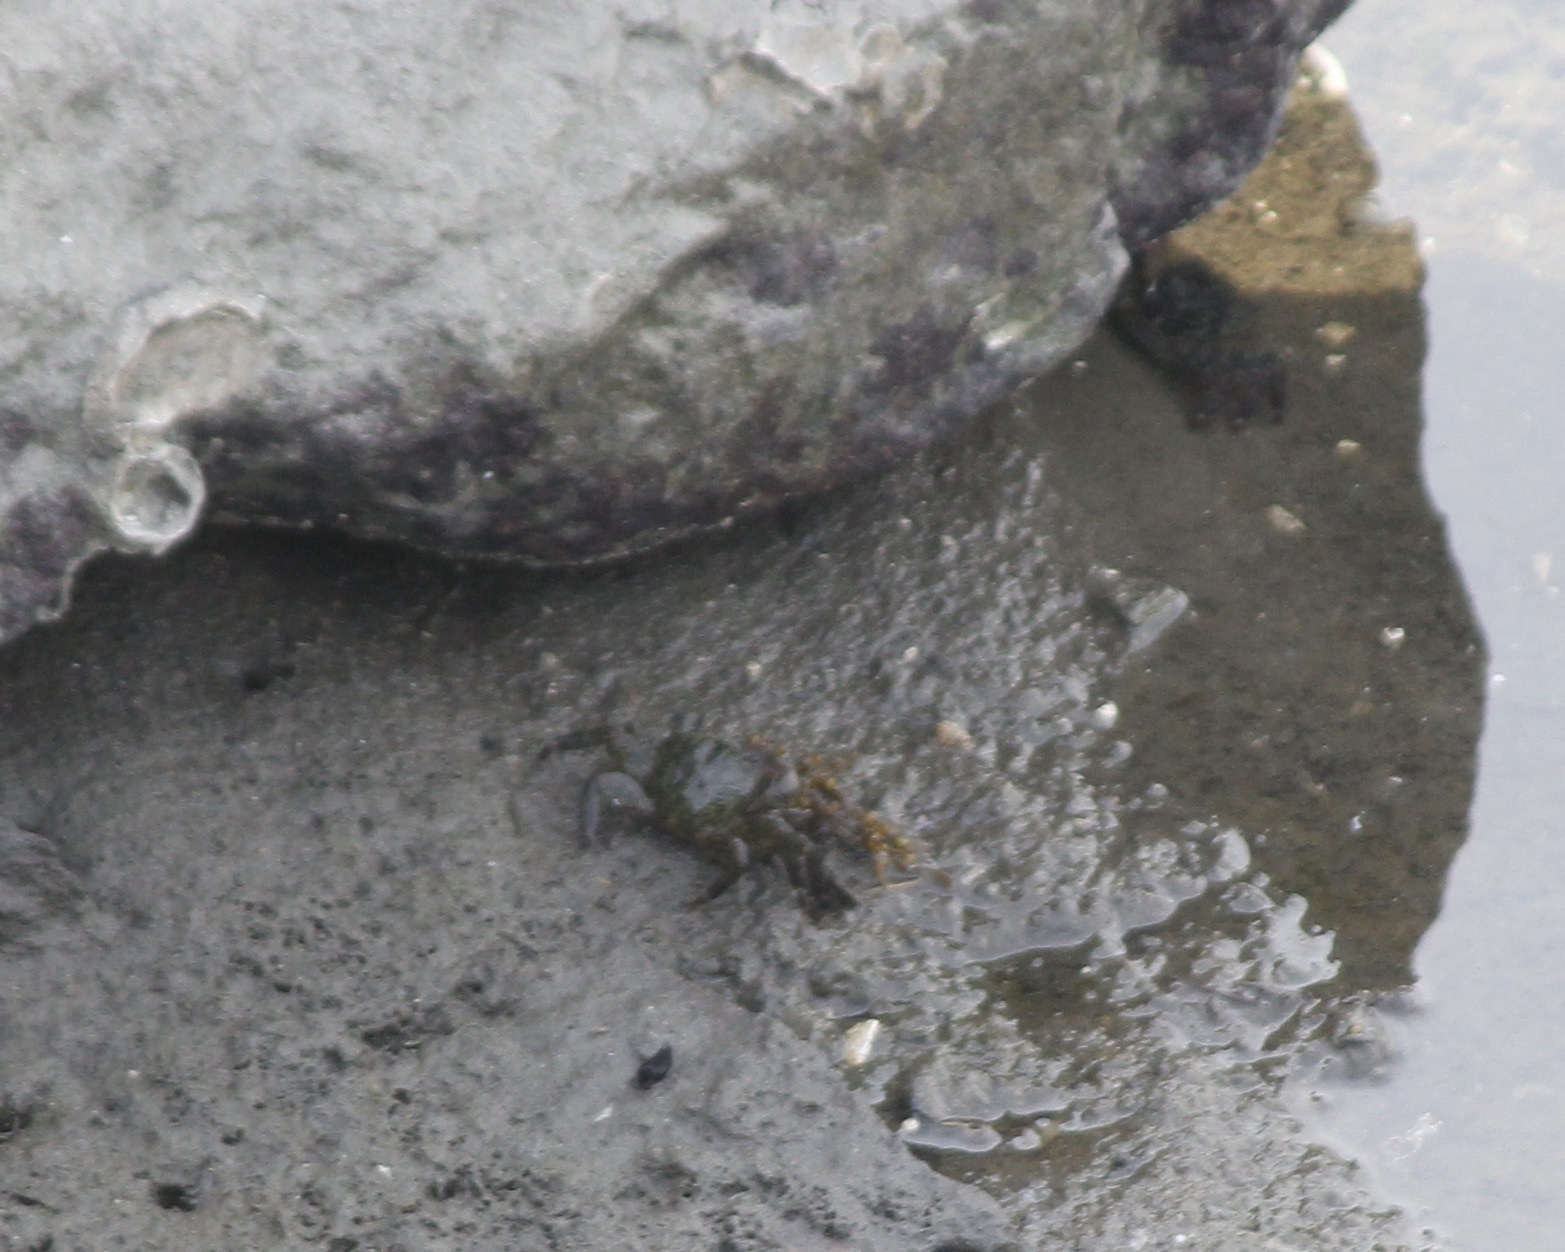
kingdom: Animalia
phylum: Arthropoda
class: Malacostraca
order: Decapoda
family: Grapsidae
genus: Pachygrapsus
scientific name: Pachygrapsus crassipes
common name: Striped shore crab
